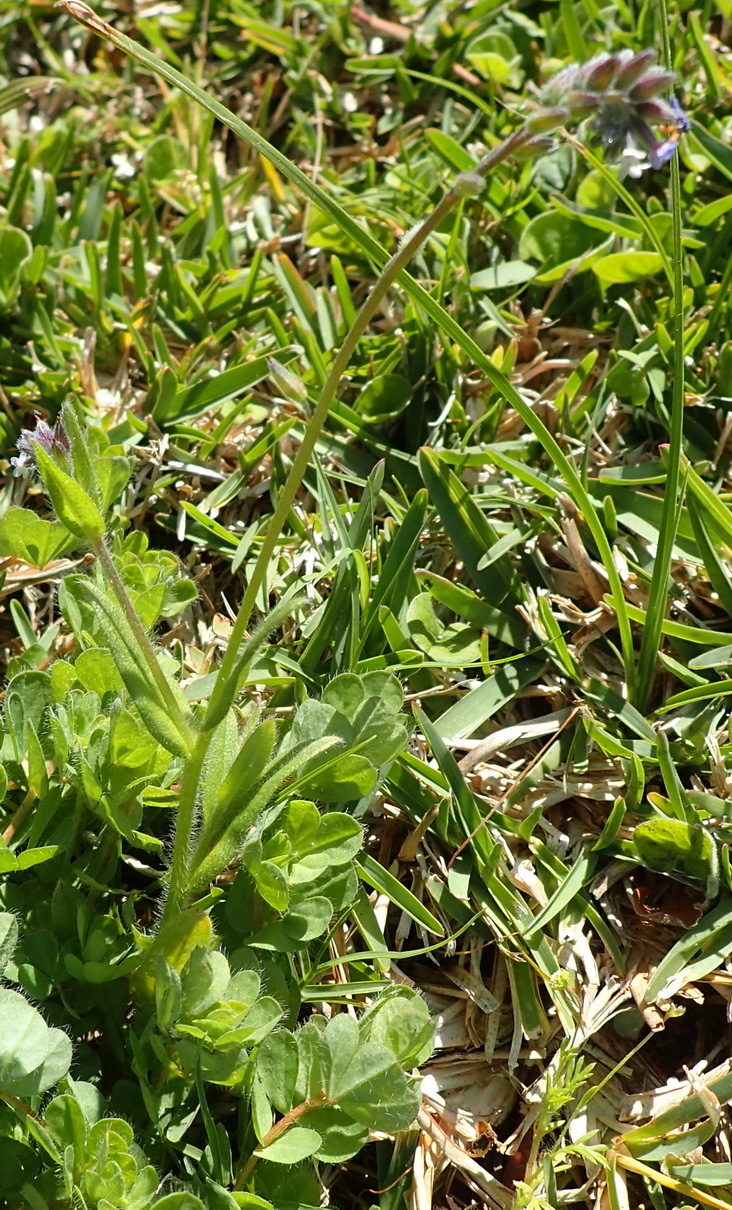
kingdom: Plantae
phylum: Tracheophyta
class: Magnoliopsida
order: Boraginales
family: Boraginaceae
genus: Myosotis
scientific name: Myosotis discolor
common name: Changing forget-me-not
